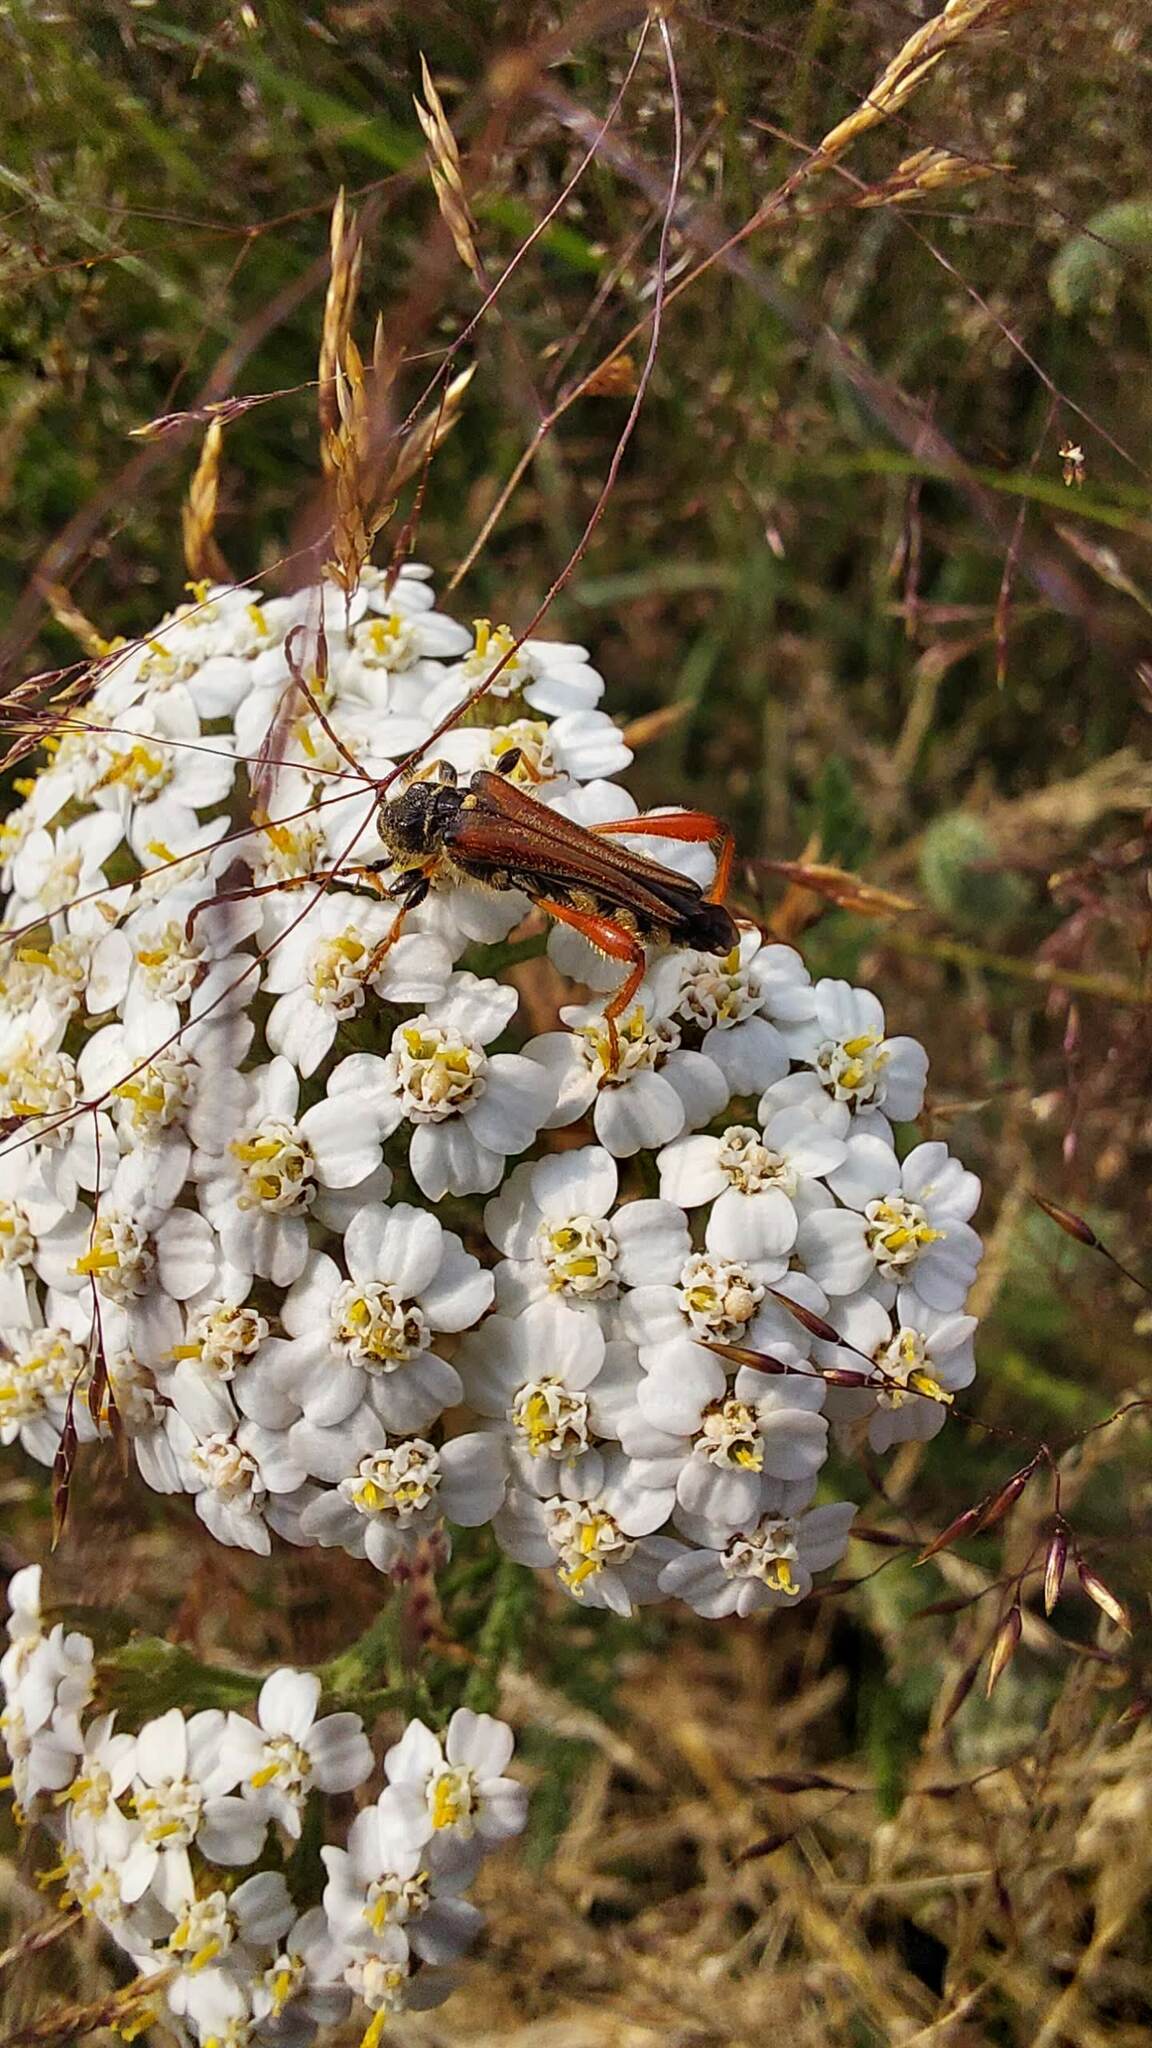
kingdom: Animalia
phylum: Arthropoda
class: Insecta
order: Coleoptera
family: Cerambycidae
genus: Stenopterus
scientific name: Stenopterus rufus
